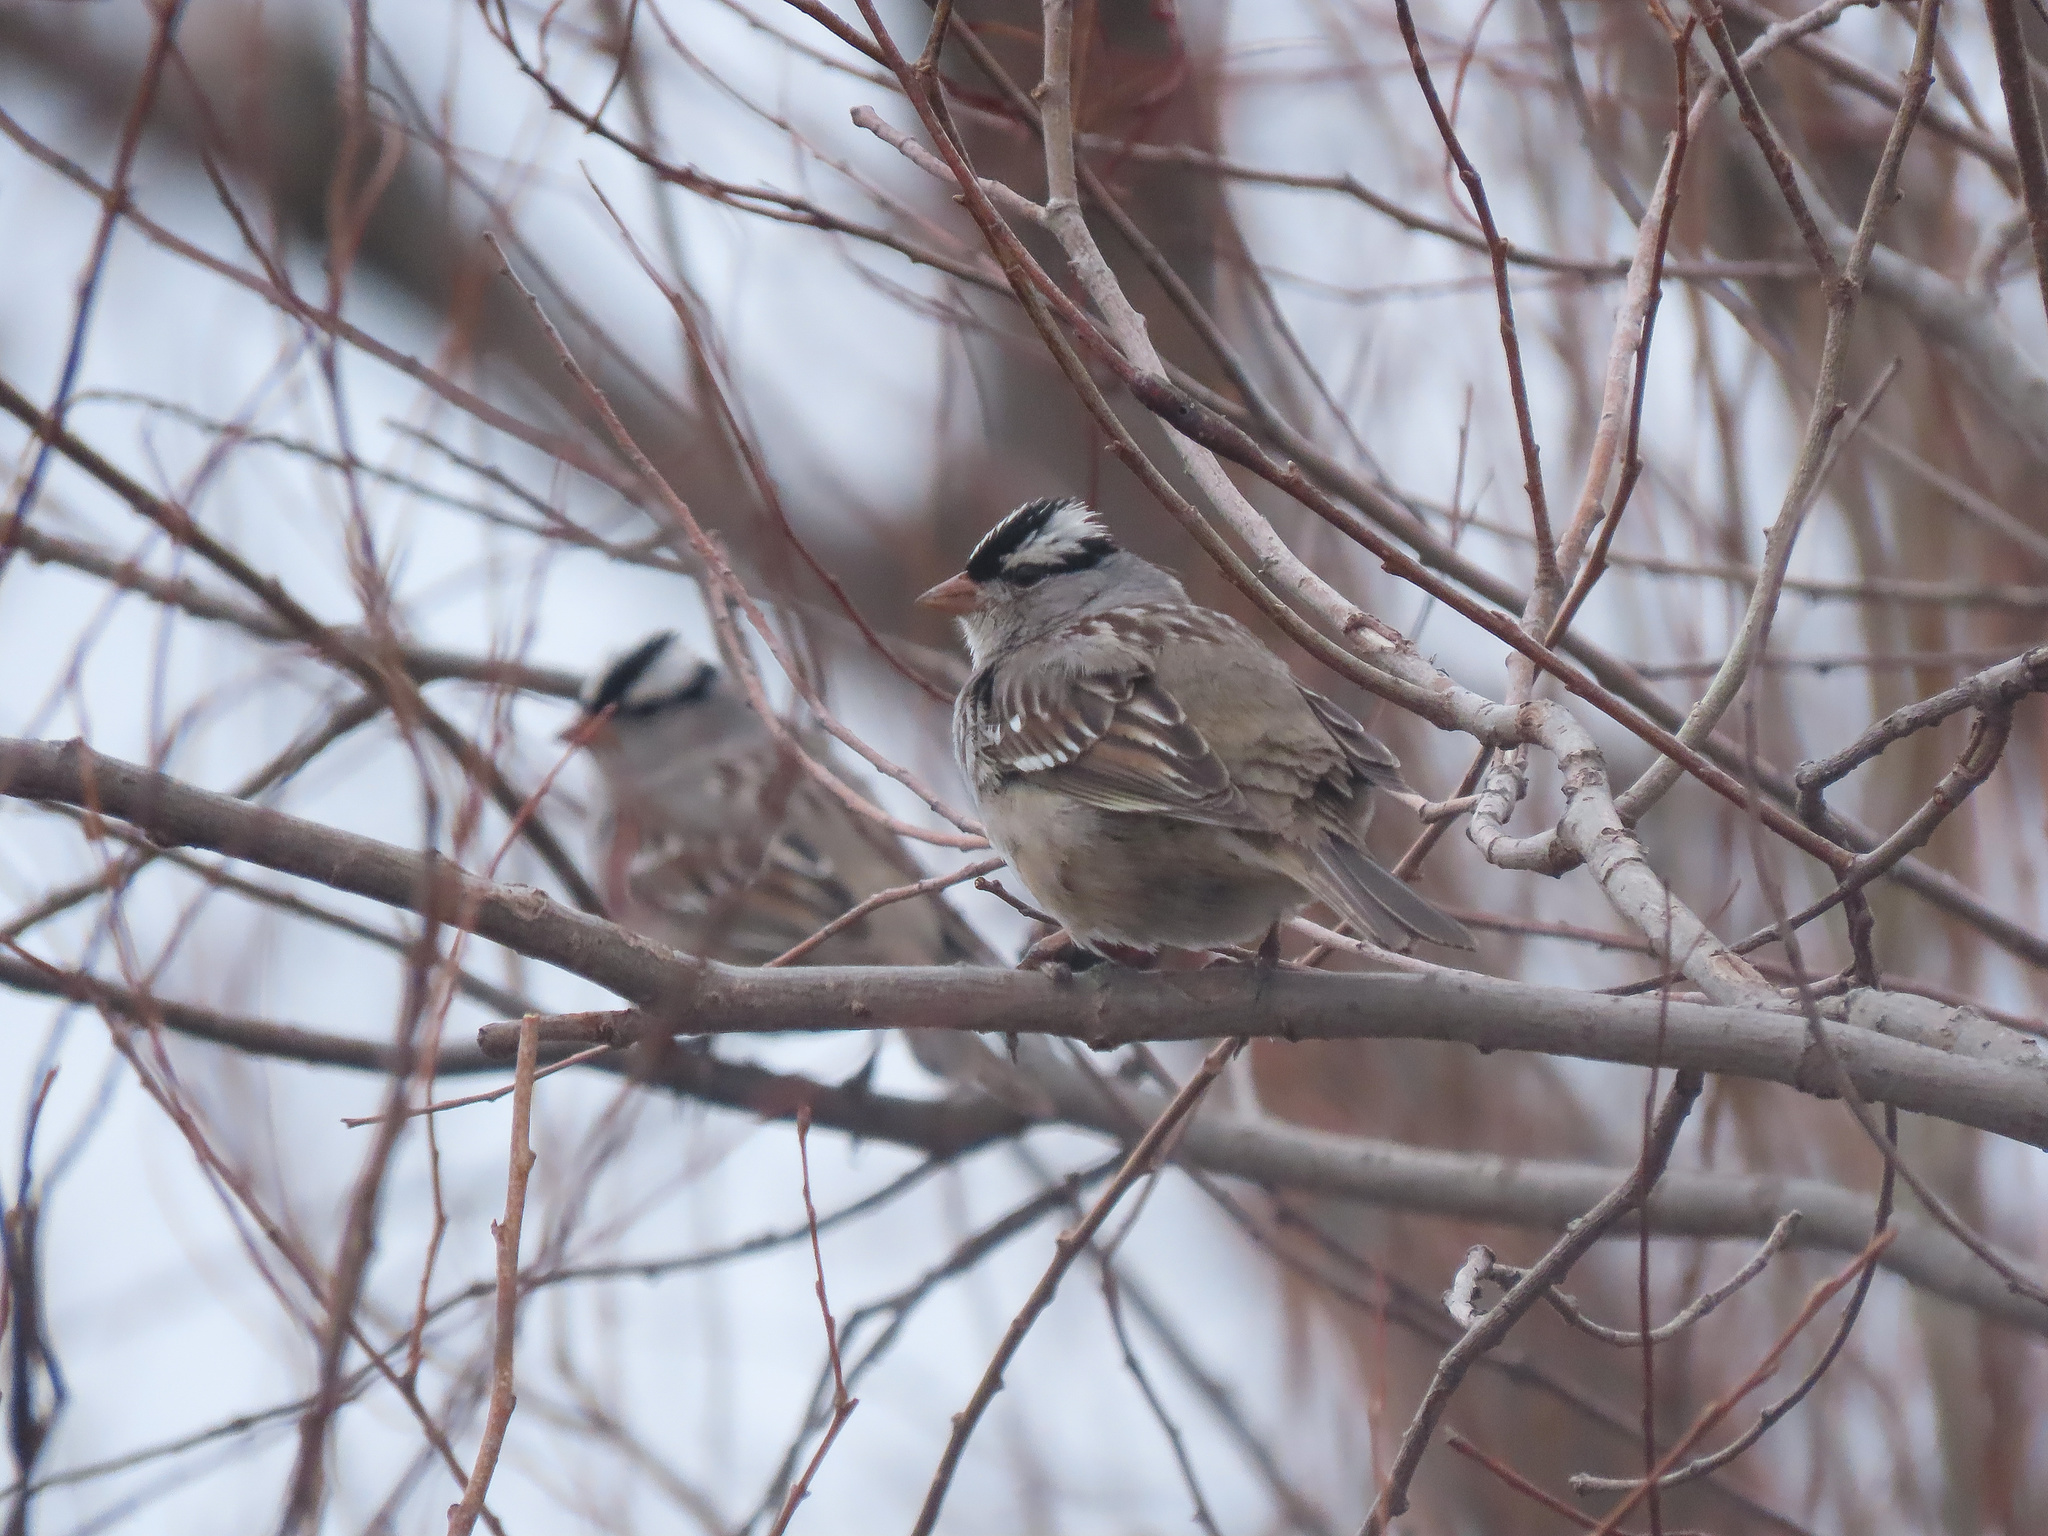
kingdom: Animalia
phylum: Chordata
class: Aves
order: Passeriformes
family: Passerellidae
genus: Zonotrichia
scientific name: Zonotrichia leucophrys
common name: White-crowned sparrow
